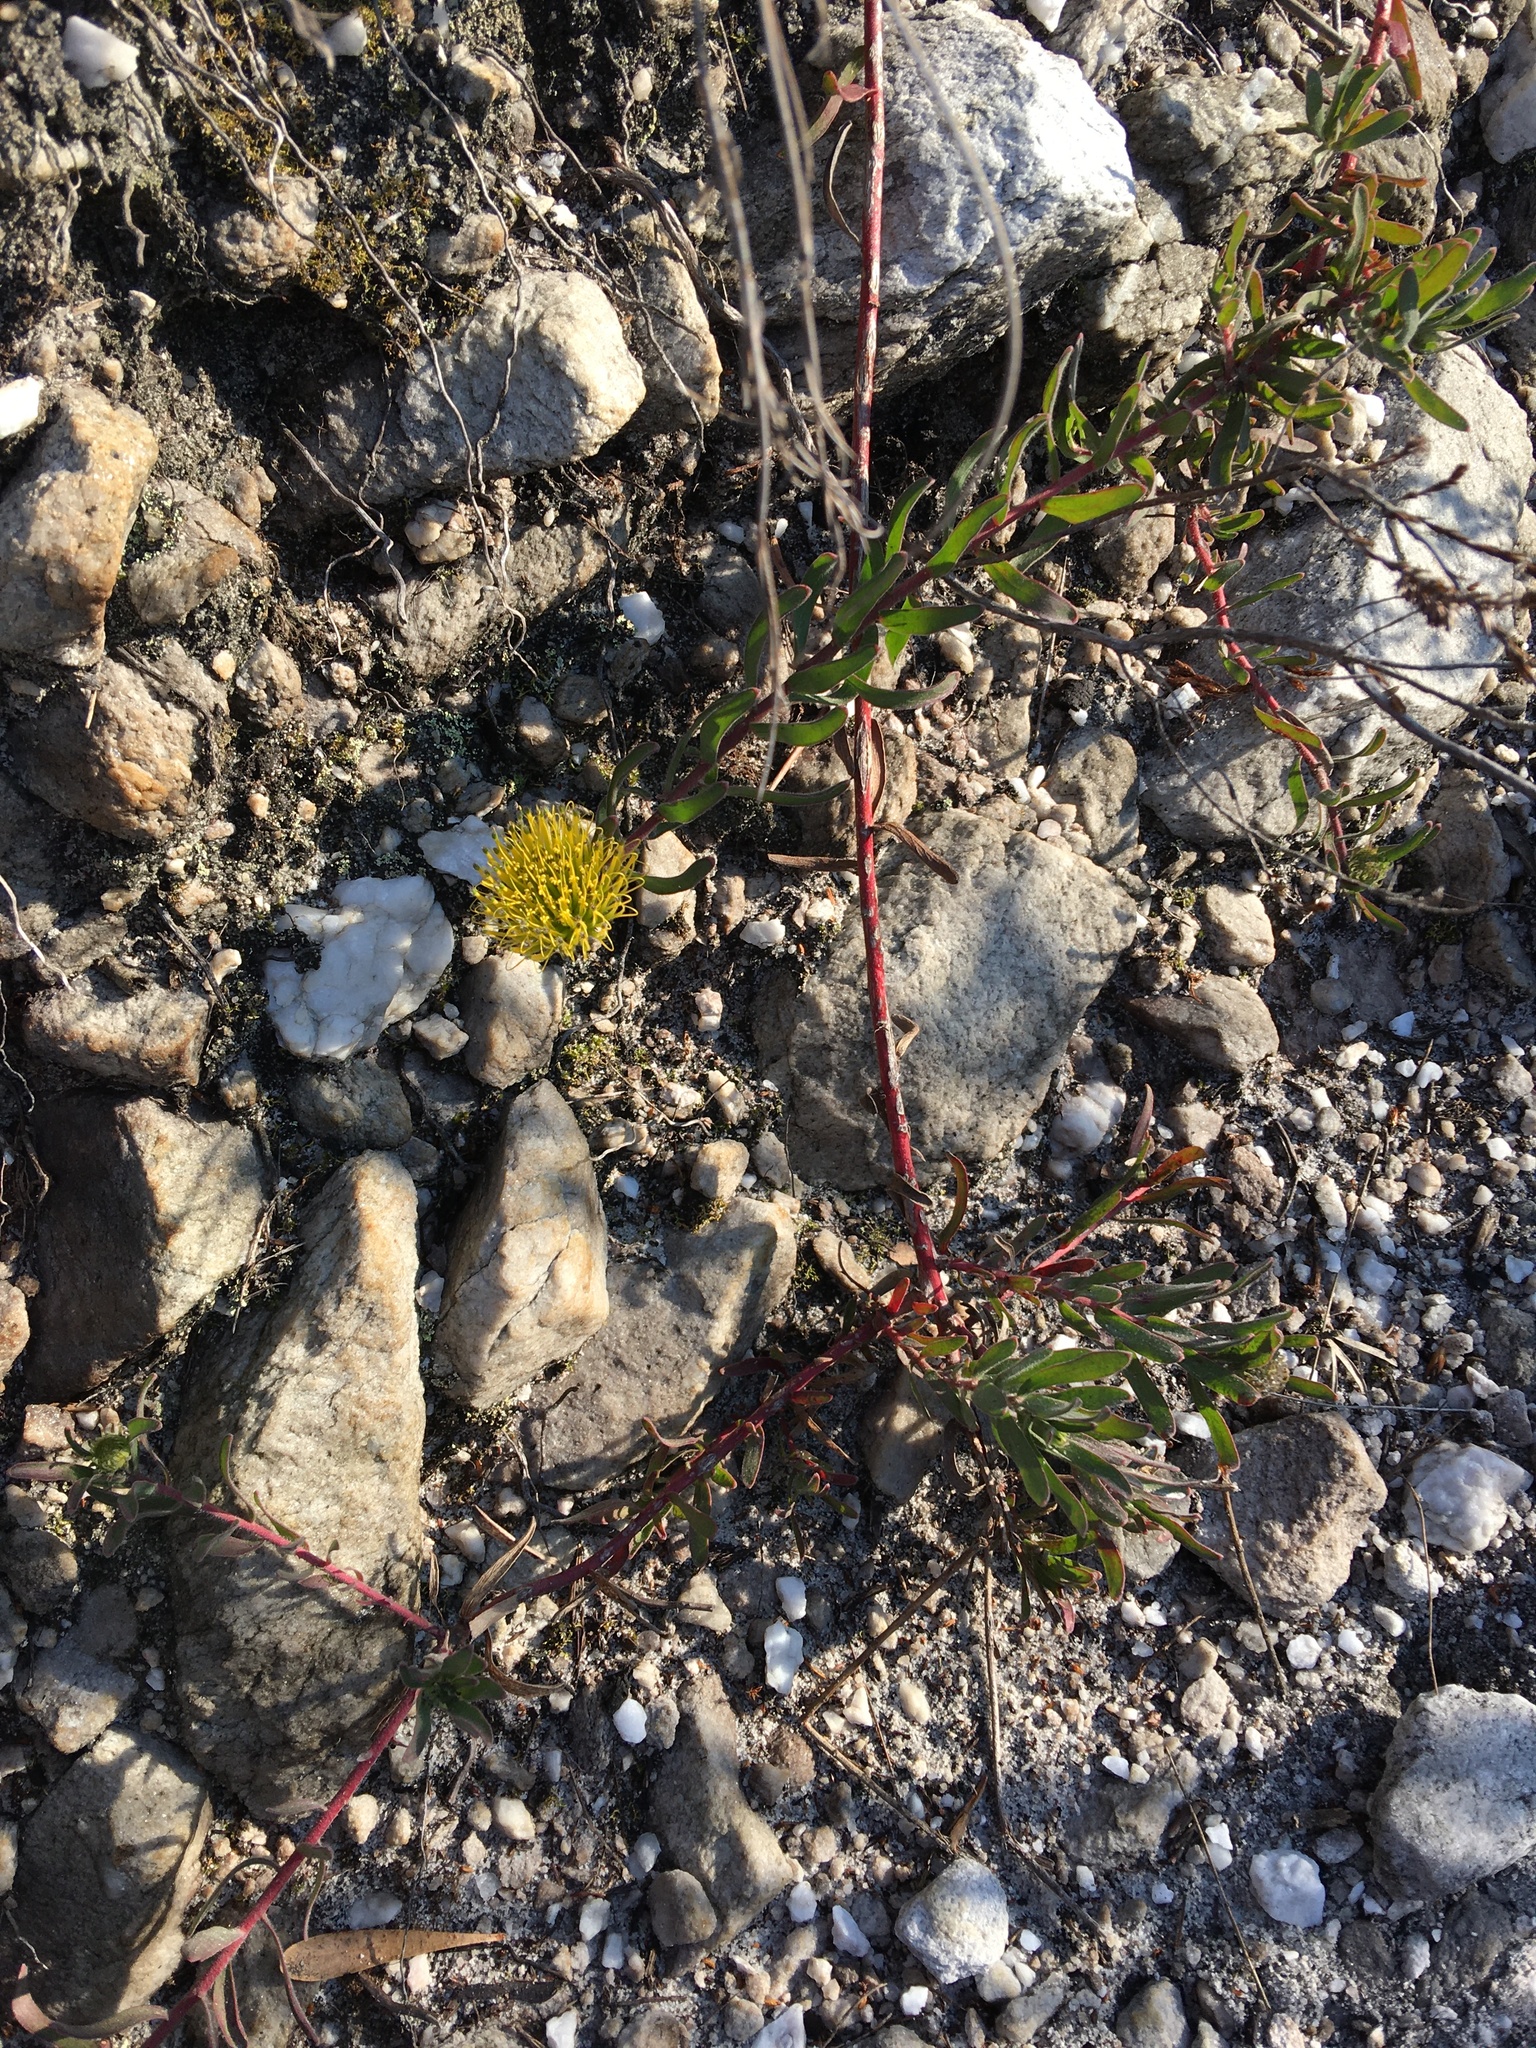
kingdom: Plantae
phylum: Tracheophyta
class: Magnoliopsida
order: Proteales
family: Proteaceae
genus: Leucospermum
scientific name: Leucospermum gracile
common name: Hermanus pincushion
